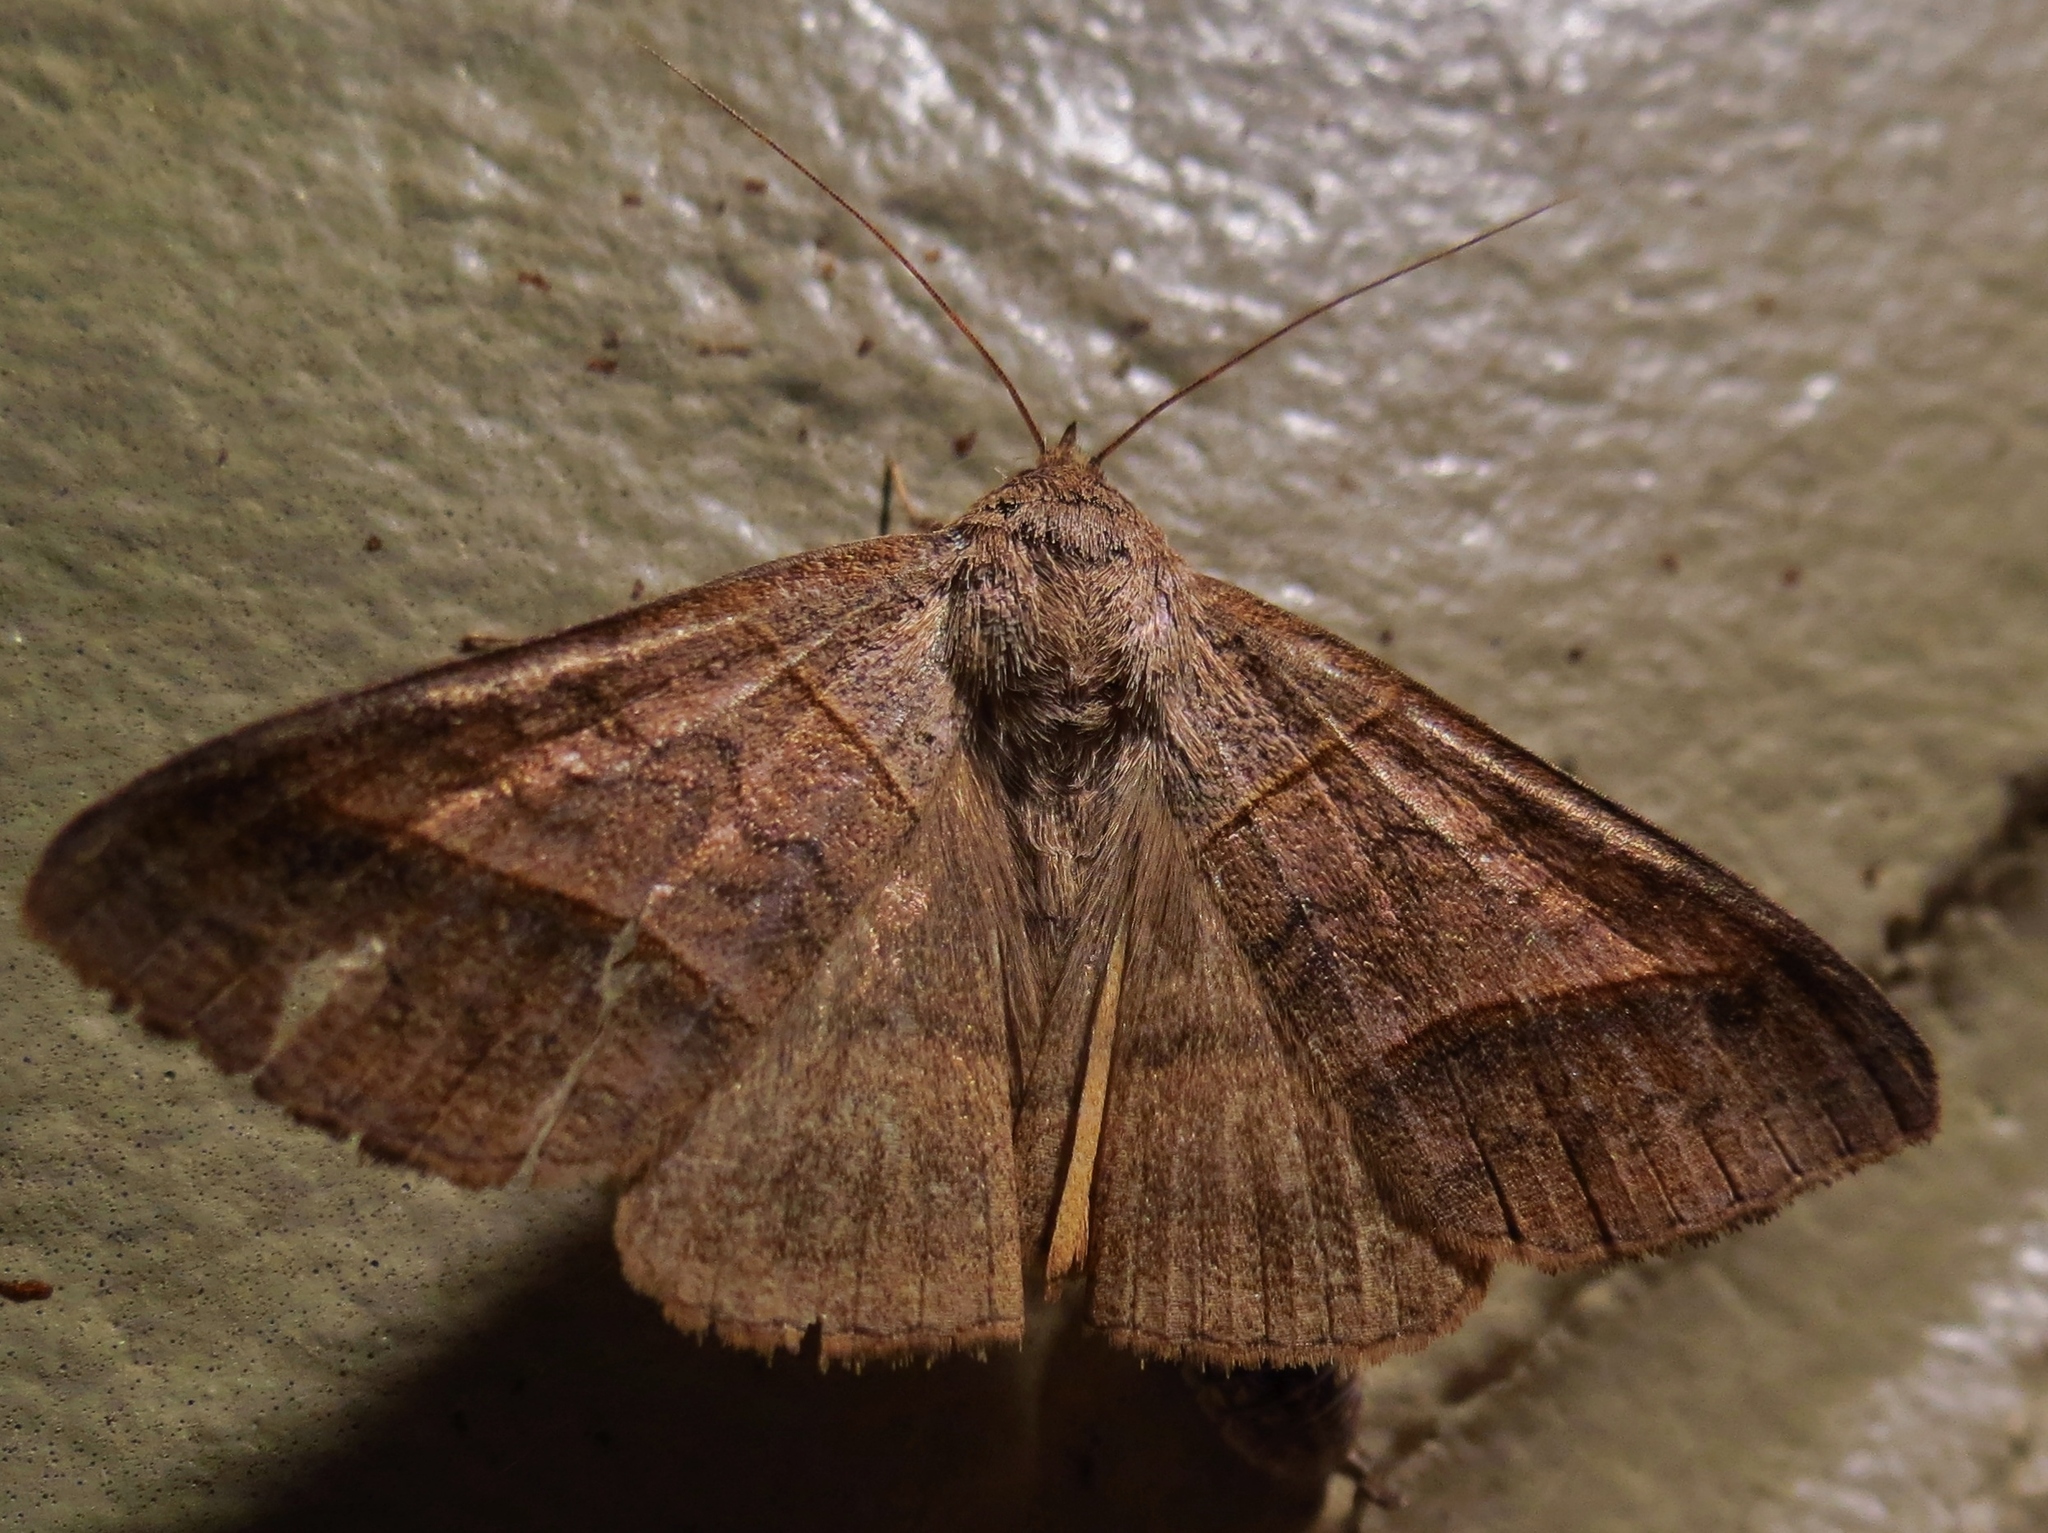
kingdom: Animalia
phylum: Arthropoda
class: Insecta
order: Lepidoptera
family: Erebidae
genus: Mocis
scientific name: Mocis texana
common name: Texas mocis moth
